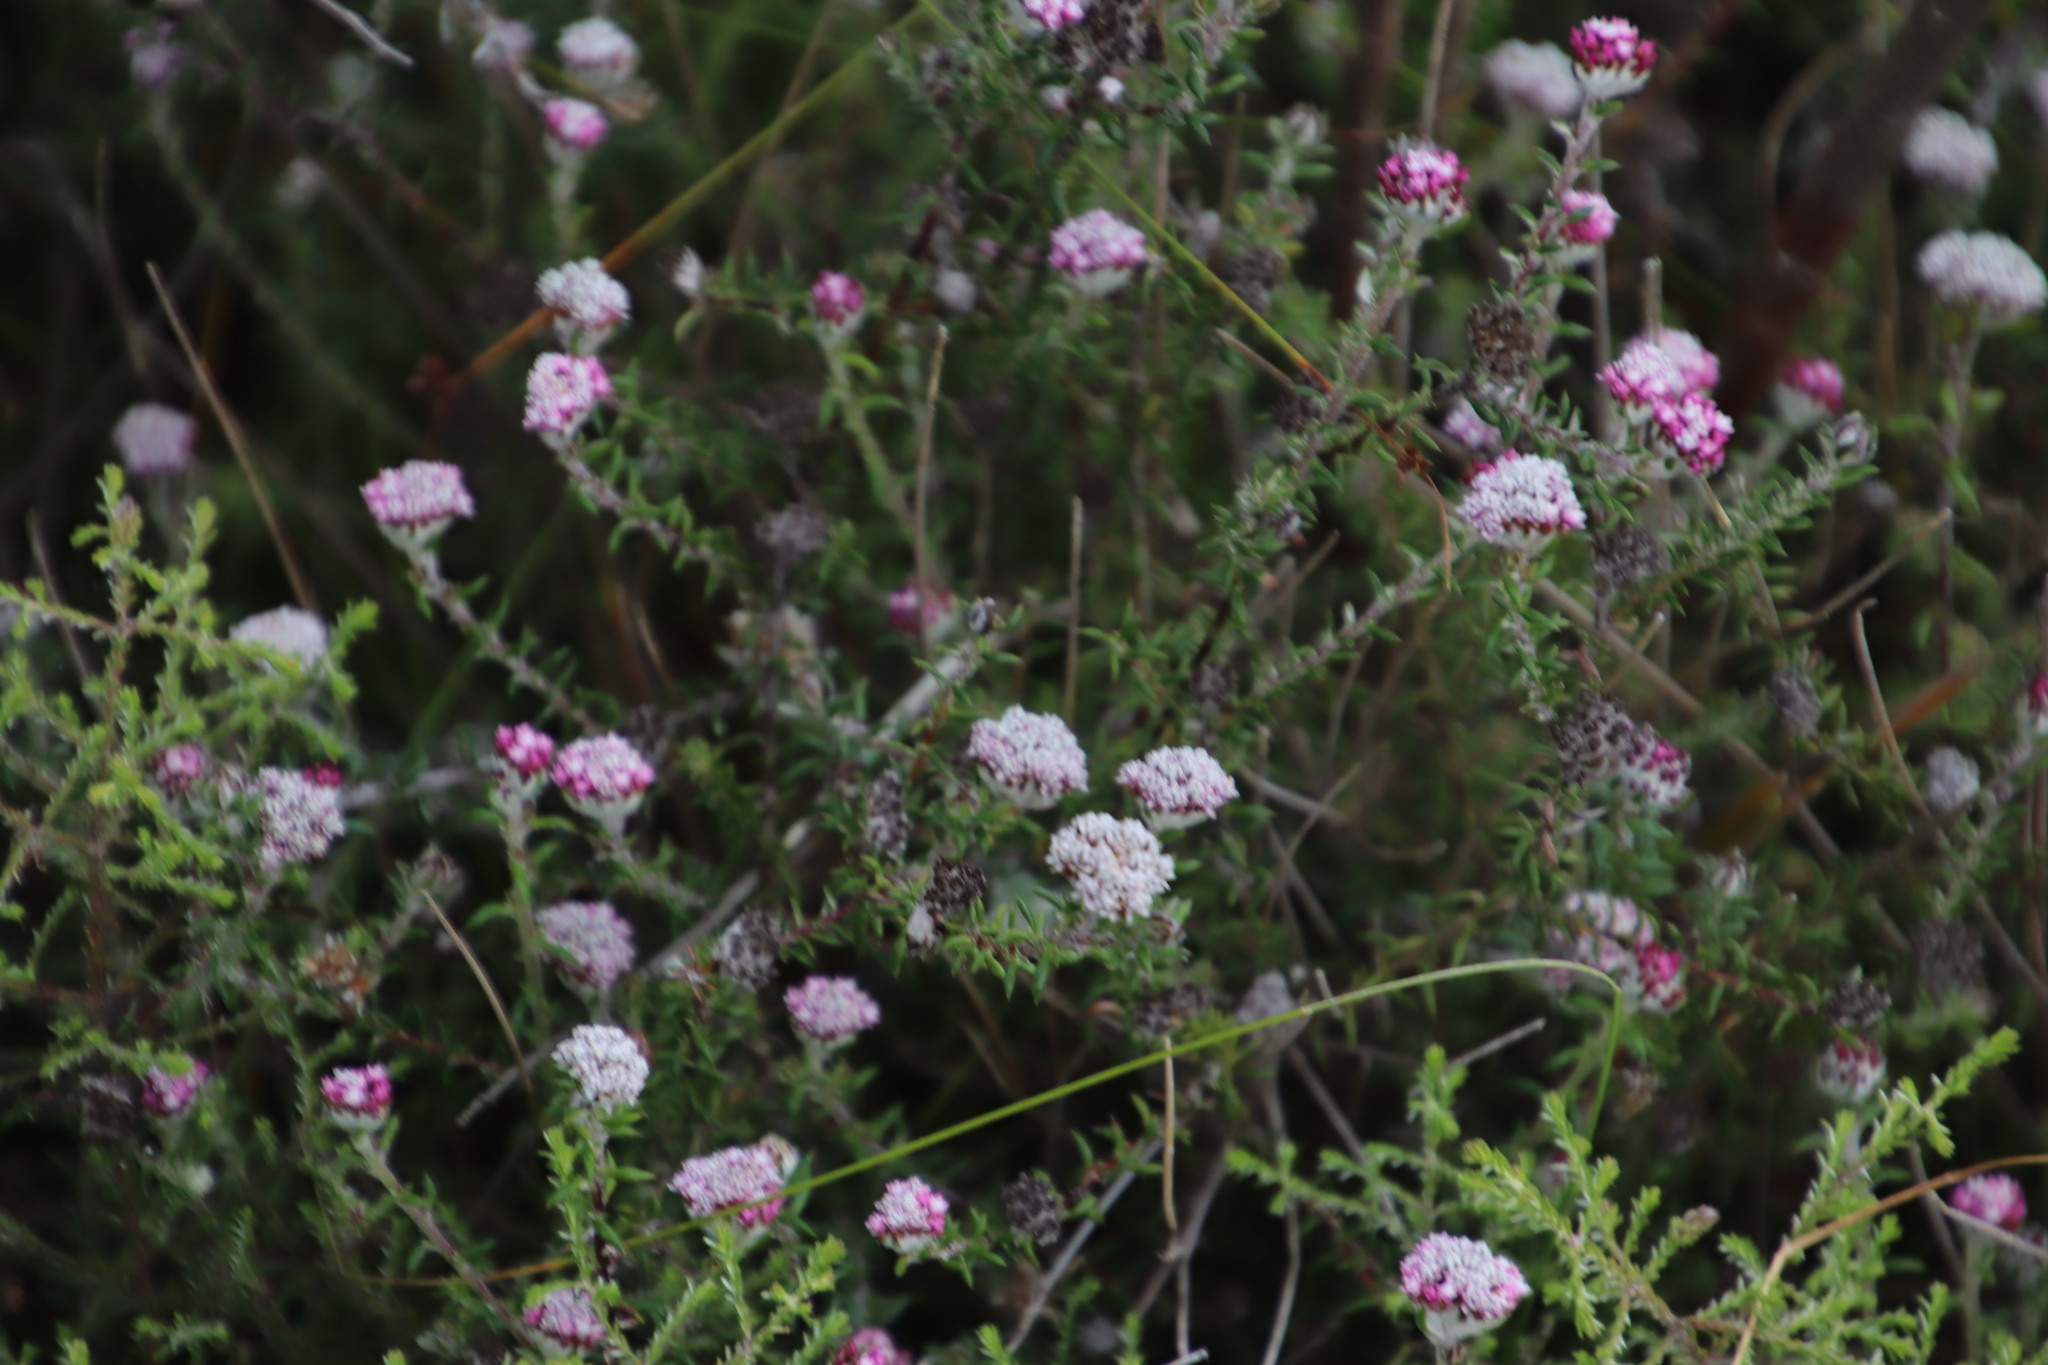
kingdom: Plantae
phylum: Tracheophyta
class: Magnoliopsida
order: Asterales
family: Asteraceae
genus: Metalasia
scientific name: Metalasia divergens
